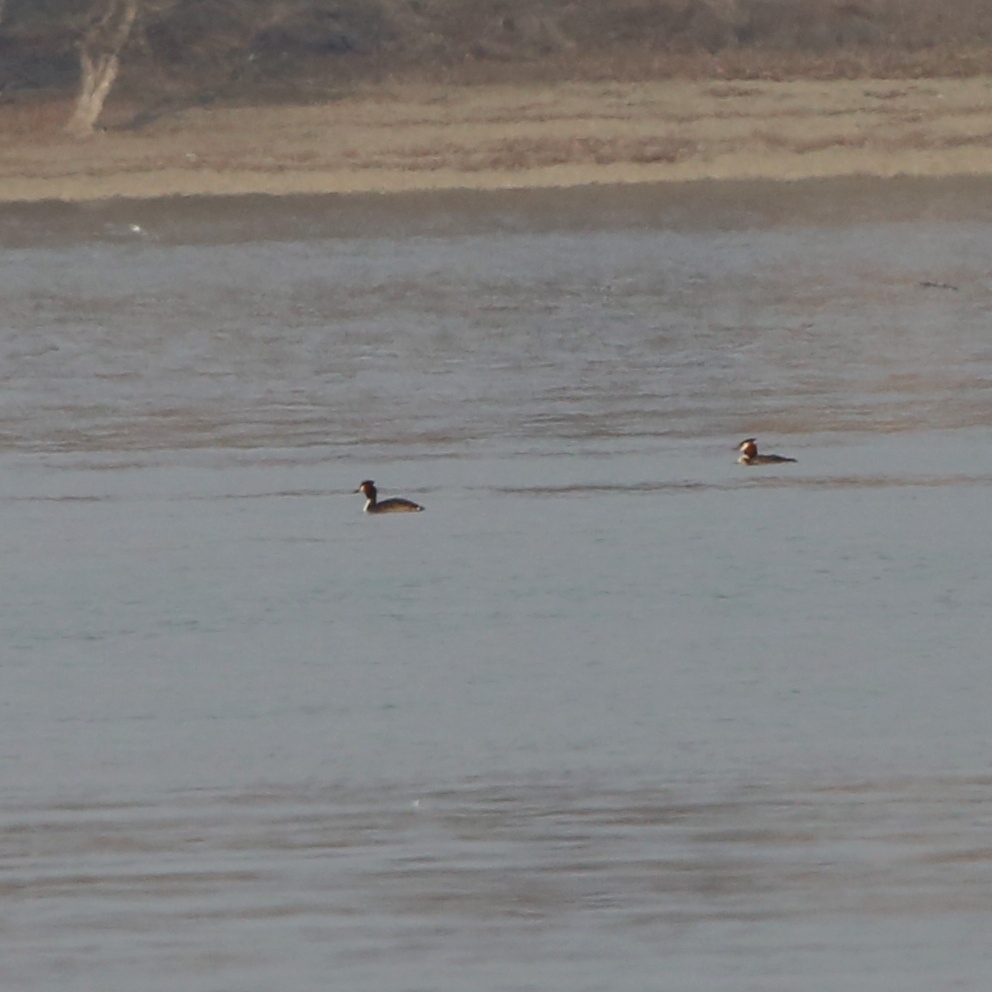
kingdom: Animalia
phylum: Chordata
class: Aves
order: Podicipediformes
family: Podicipedidae
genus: Podiceps
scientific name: Podiceps cristatus
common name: Great crested grebe
